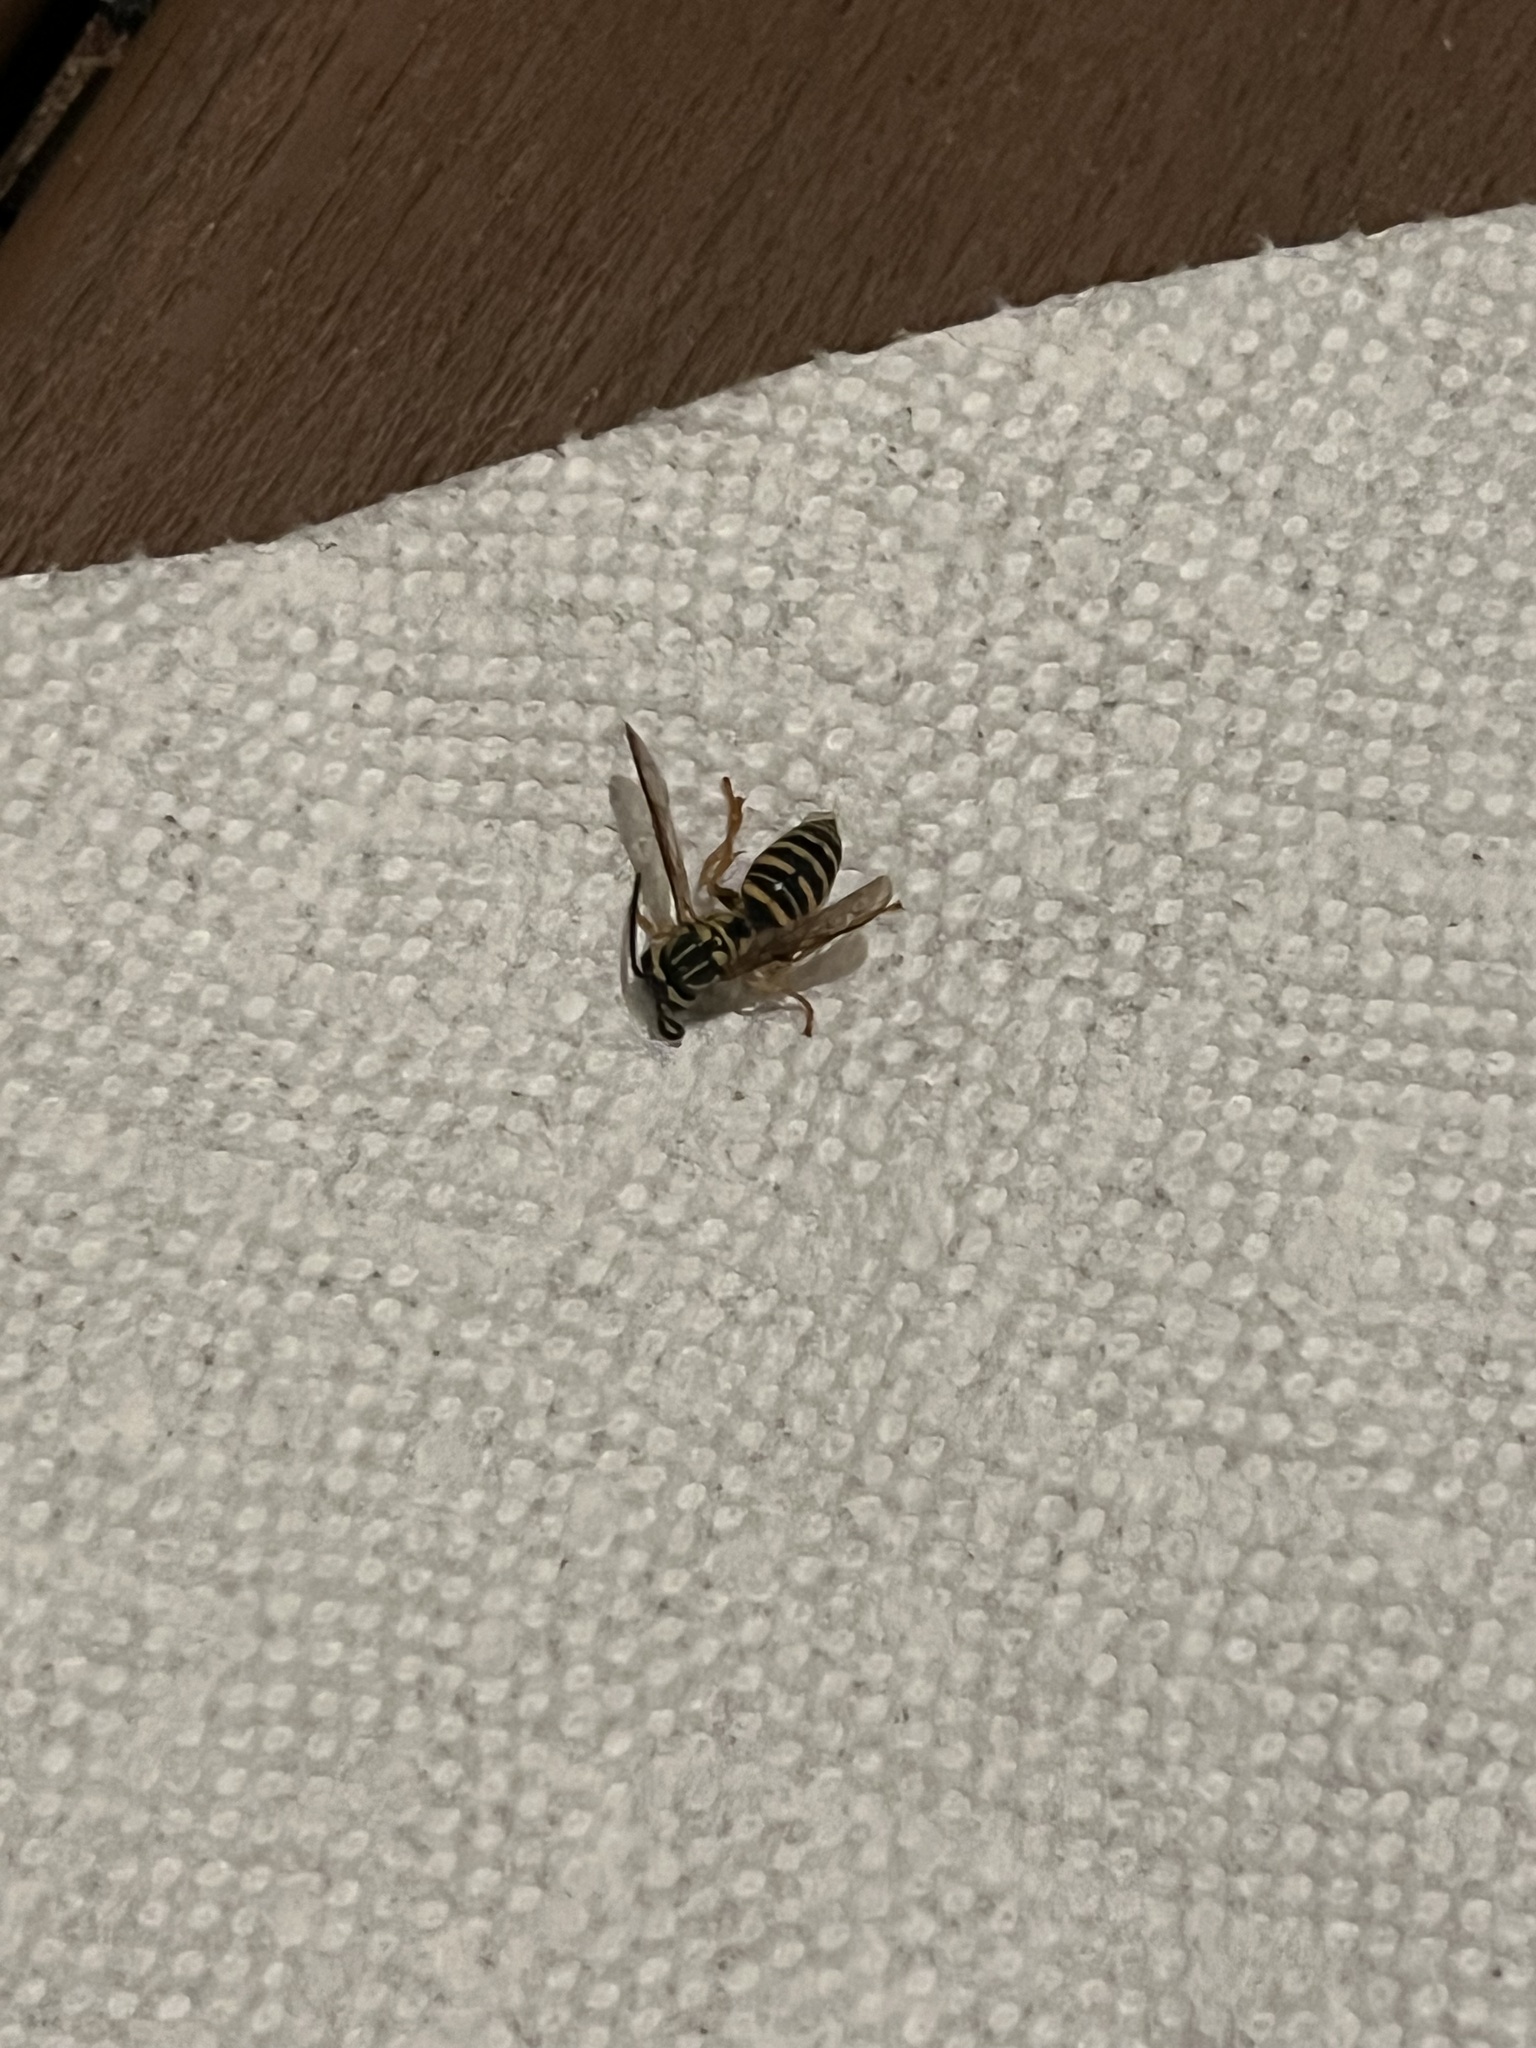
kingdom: Animalia
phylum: Arthropoda
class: Insecta
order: Hymenoptera
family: Vespidae
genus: Vespula
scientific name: Vespula squamosa
